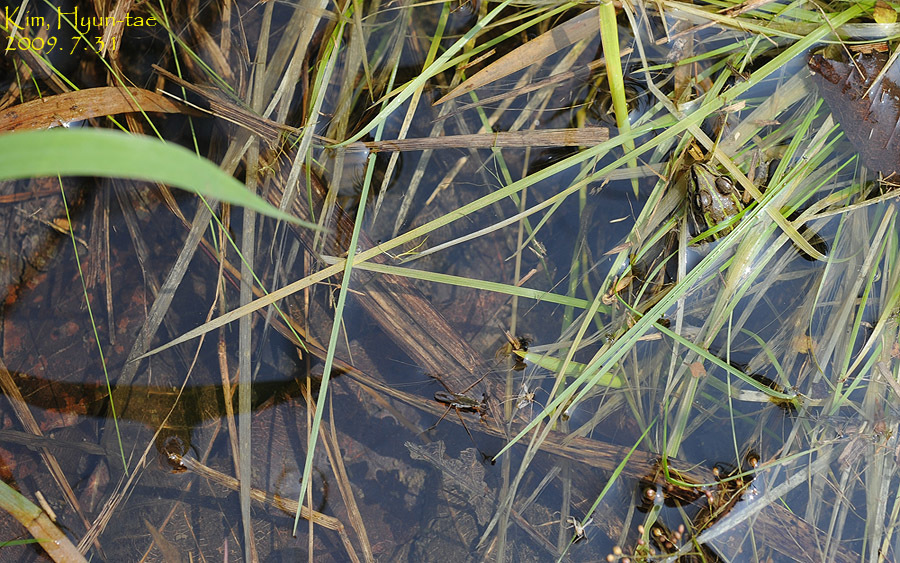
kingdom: Animalia
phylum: Chordata
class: Amphibia
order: Anura
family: Ranidae
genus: Pelophylax
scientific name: Pelophylax nigromaculatus
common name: Black-spotted pond frog
